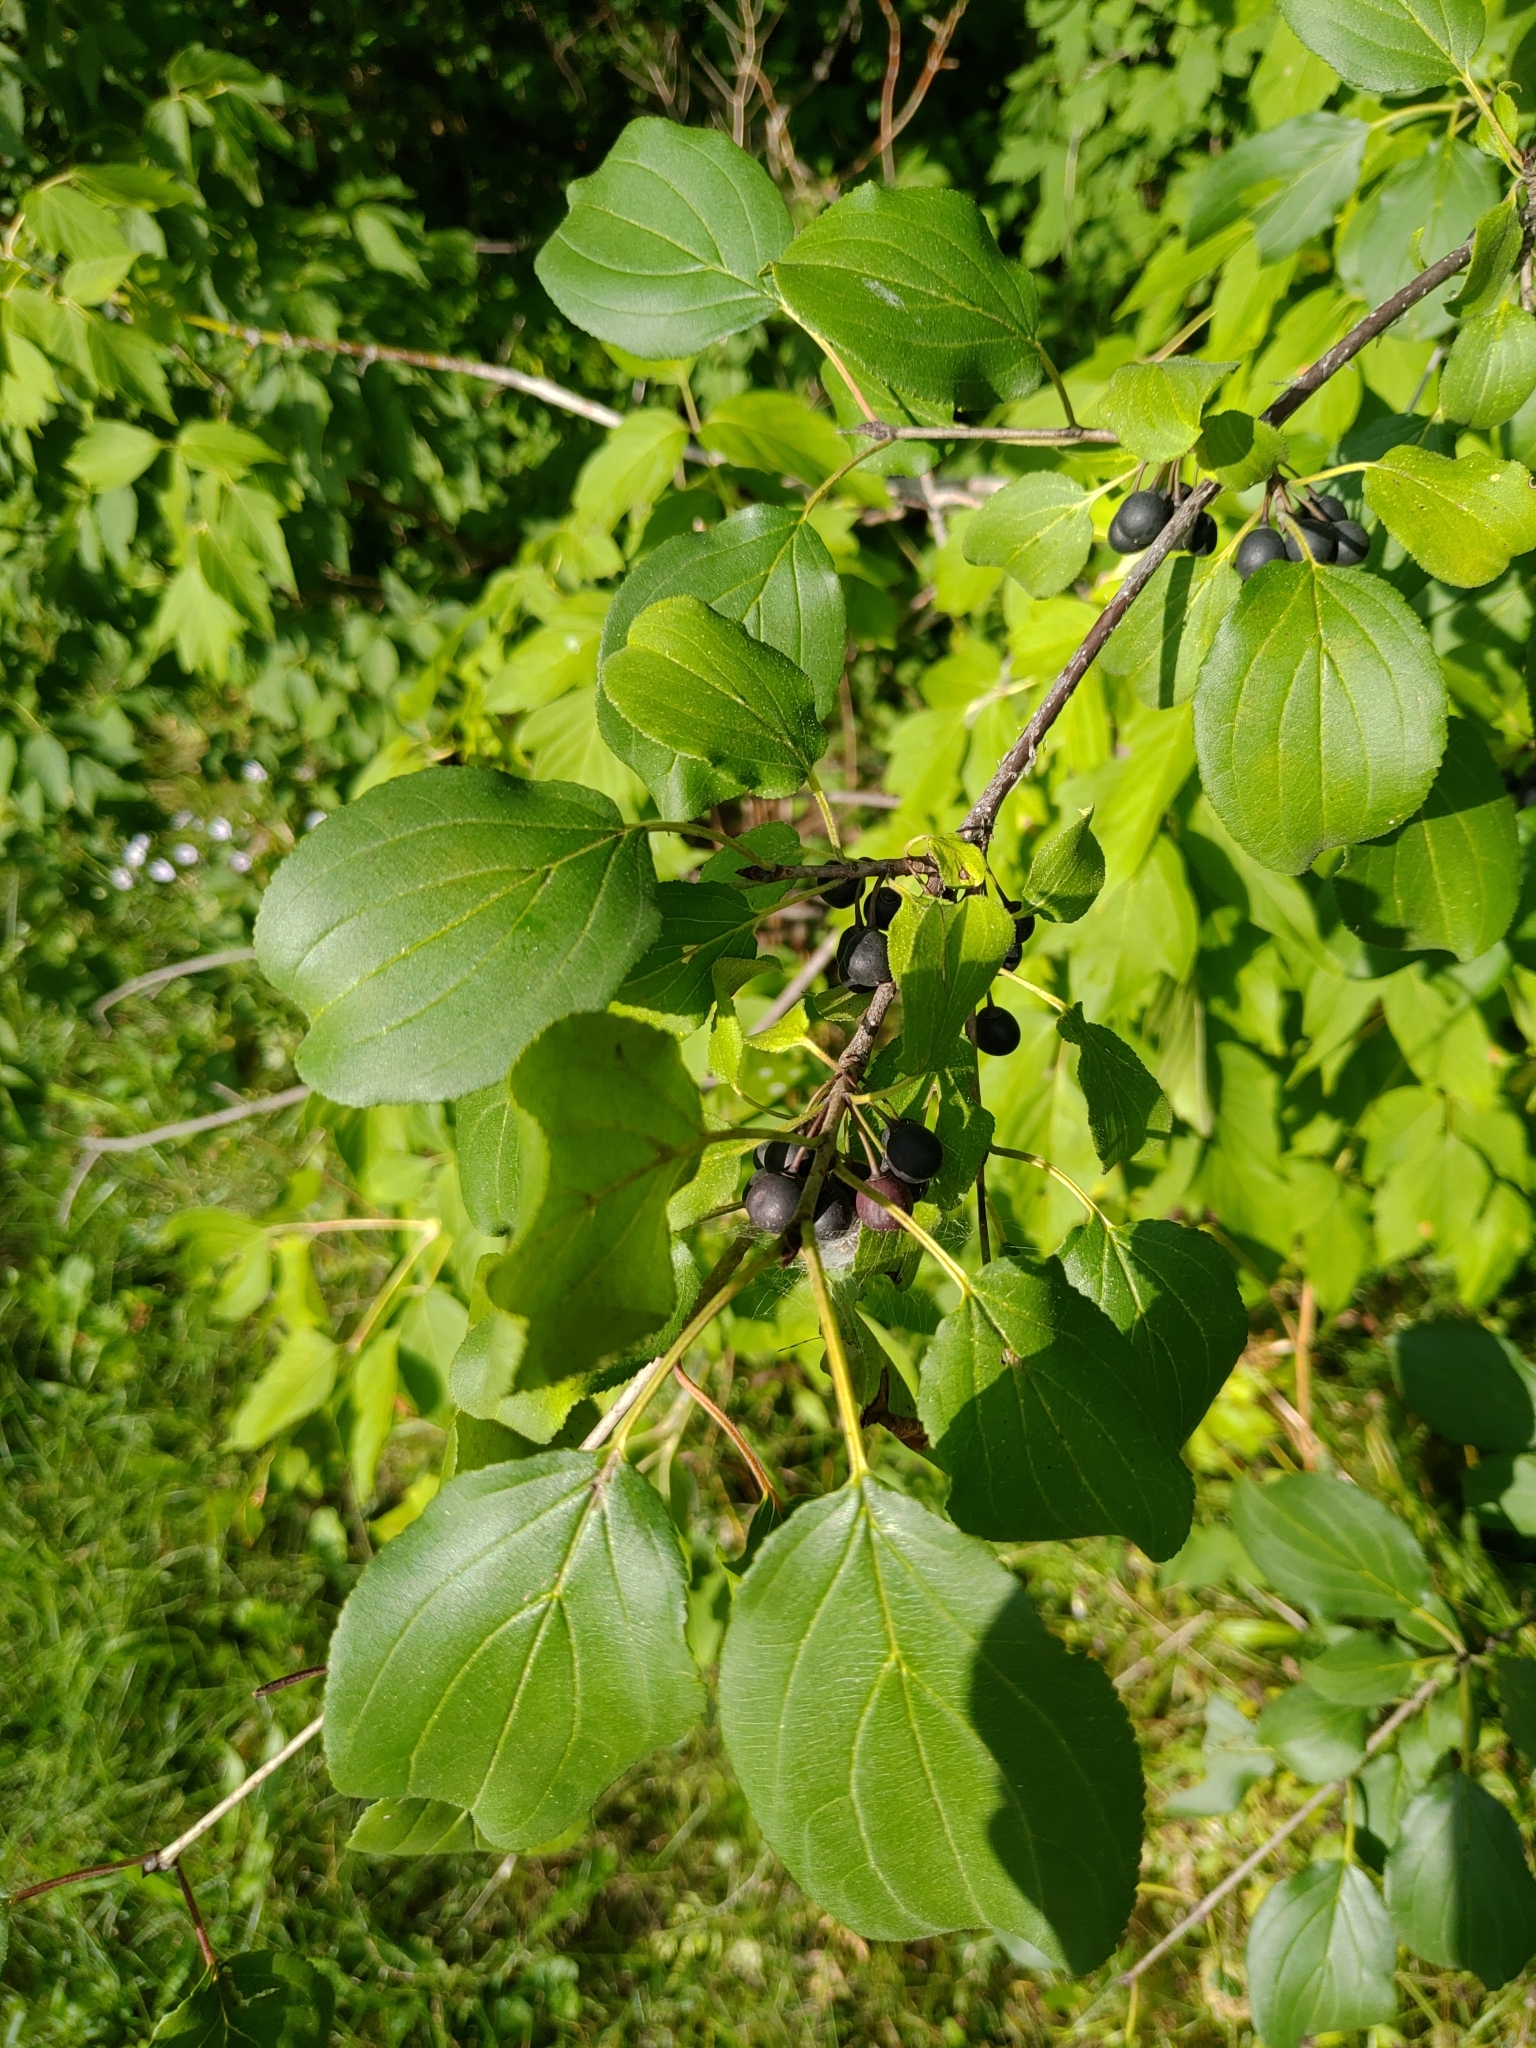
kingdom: Plantae
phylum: Tracheophyta
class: Magnoliopsida
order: Rosales
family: Rhamnaceae
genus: Rhamnus
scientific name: Rhamnus cathartica
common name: Common buckthorn
